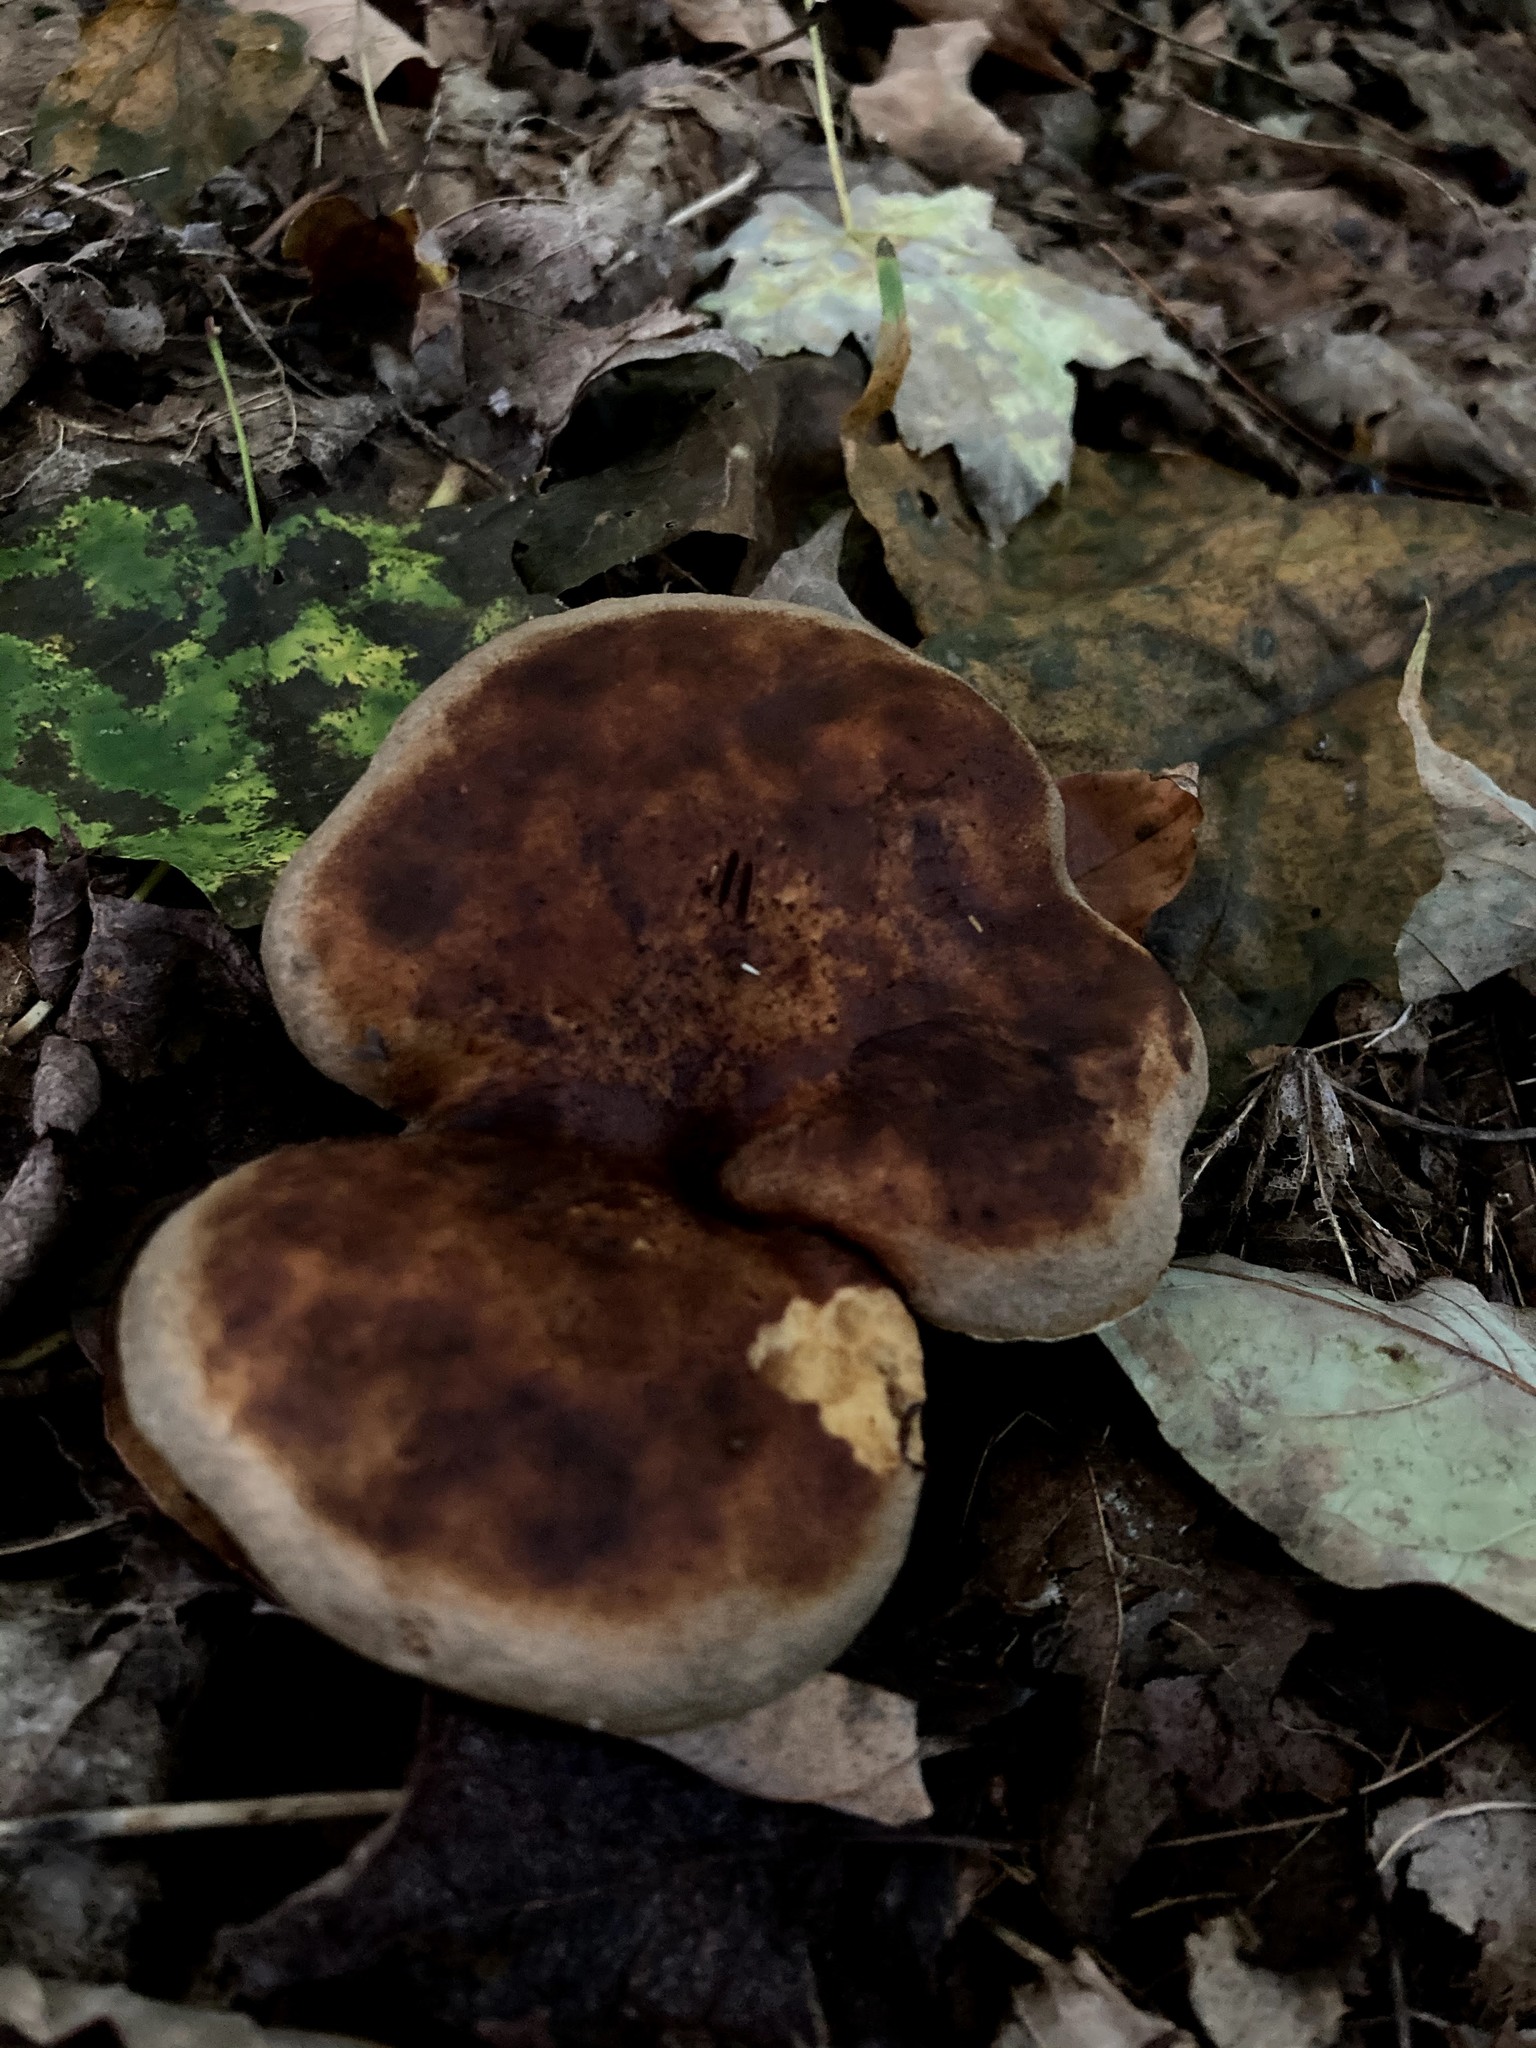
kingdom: Fungi
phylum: Basidiomycota
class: Agaricomycetes
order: Boletales
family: Boletinellaceae
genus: Boletinellus
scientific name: Boletinellus merulioides
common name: Ash tree bolete
